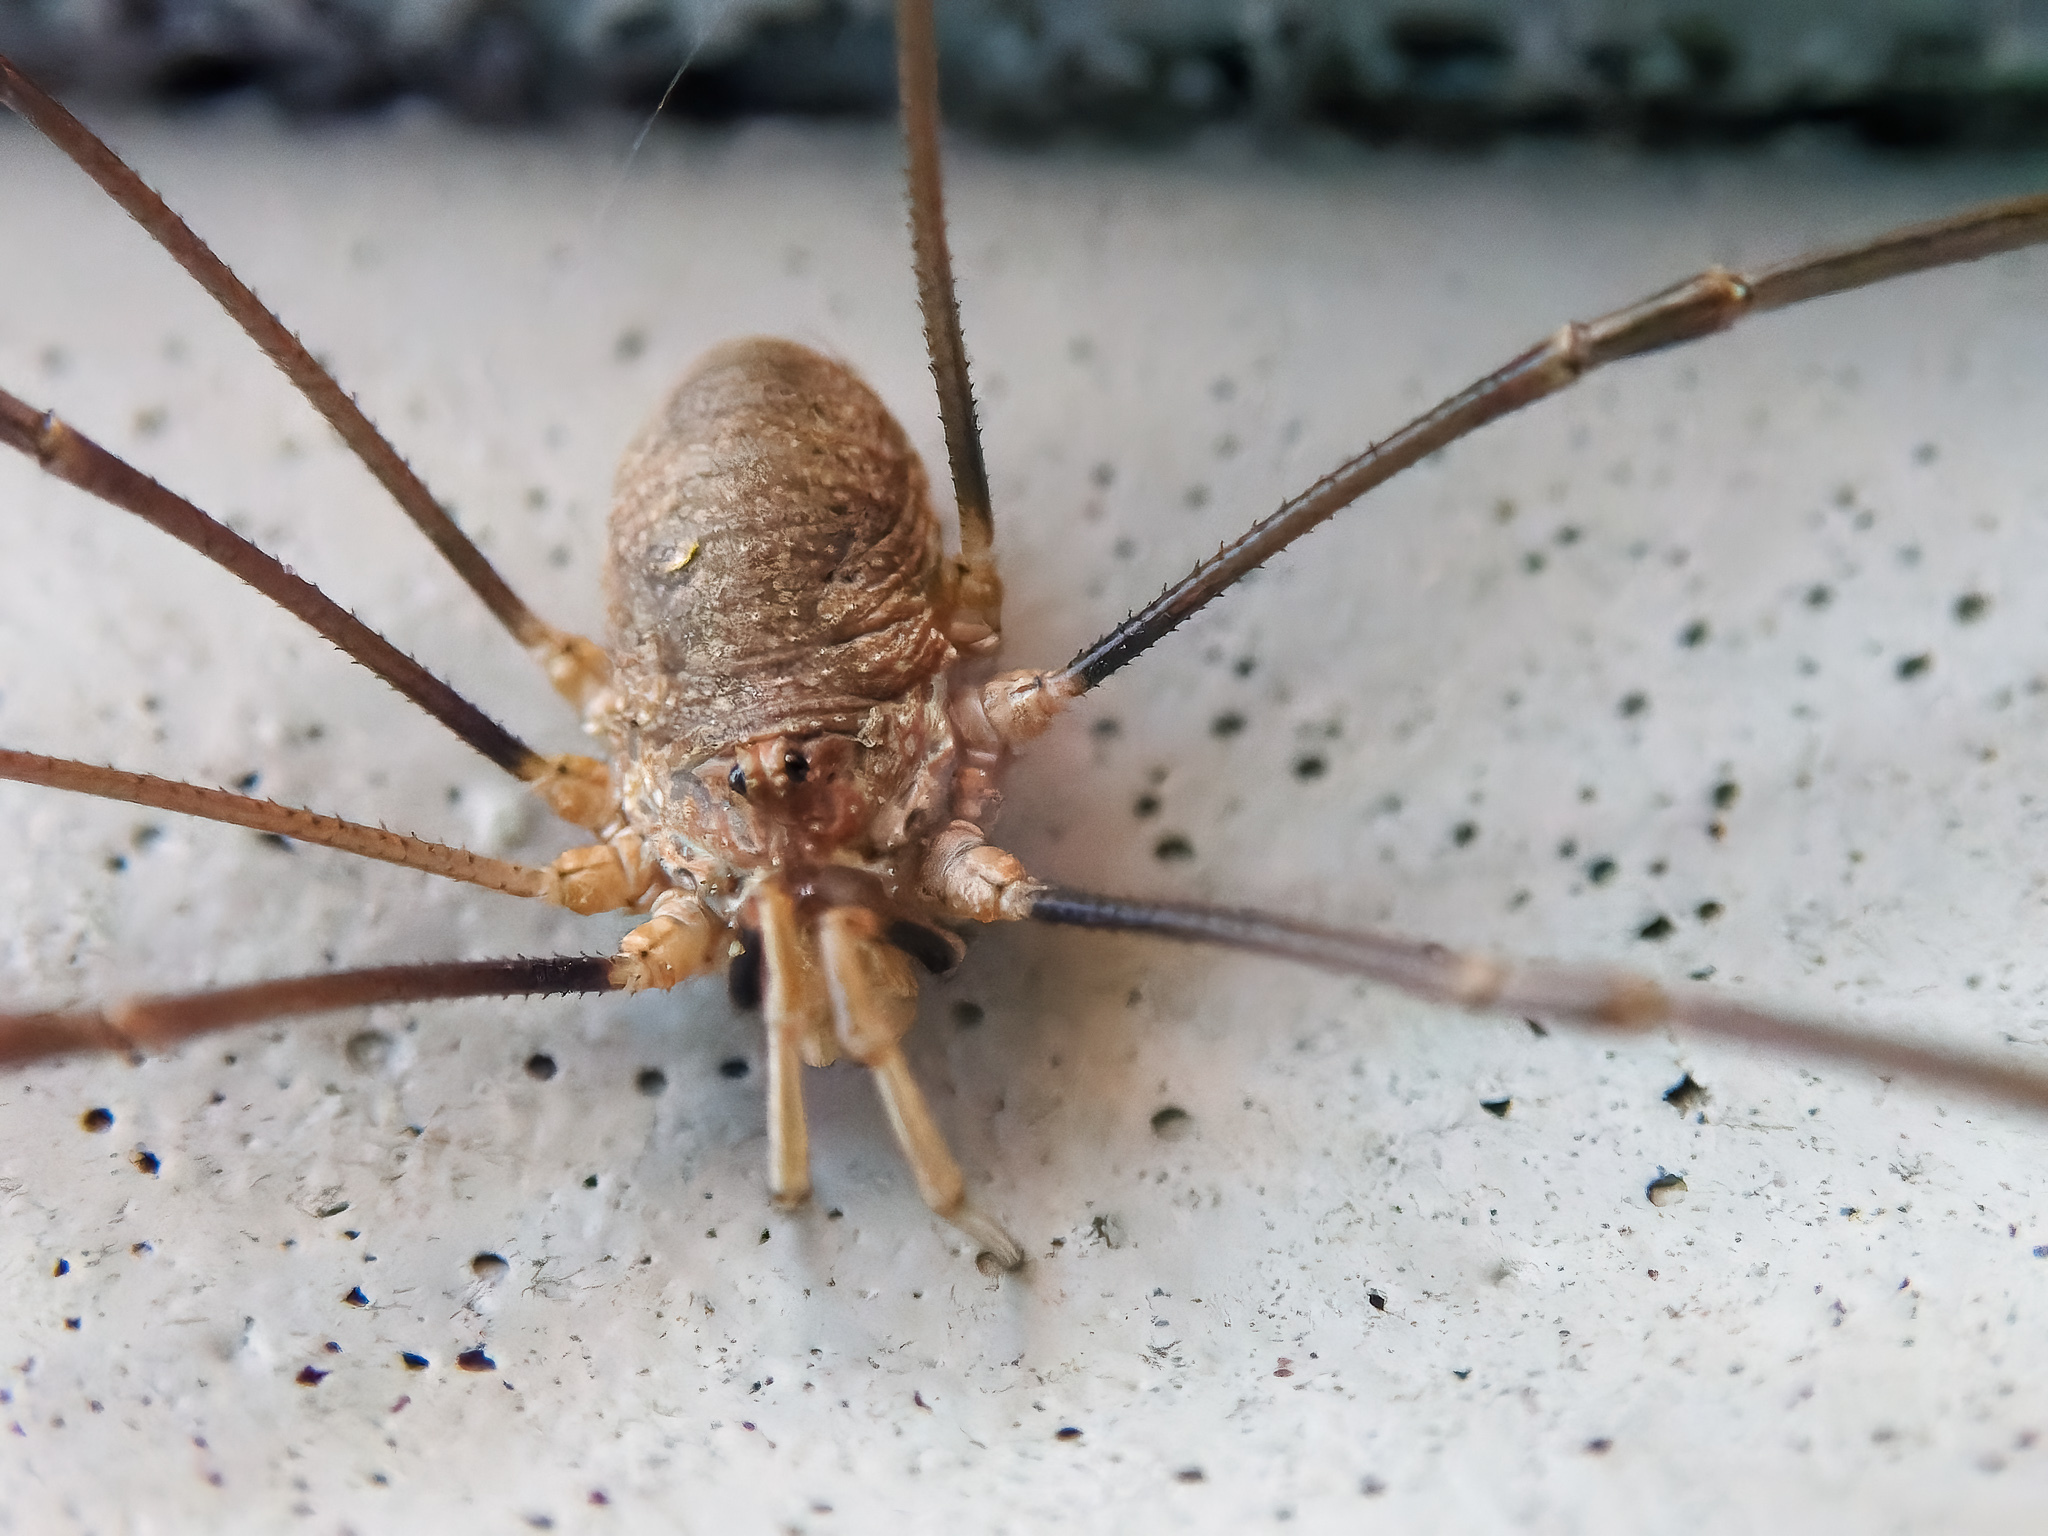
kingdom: Animalia
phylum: Arthropoda
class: Arachnida
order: Opiliones
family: Phalangiidae
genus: Phalangium
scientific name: Phalangium opilio
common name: Daddy longleg
